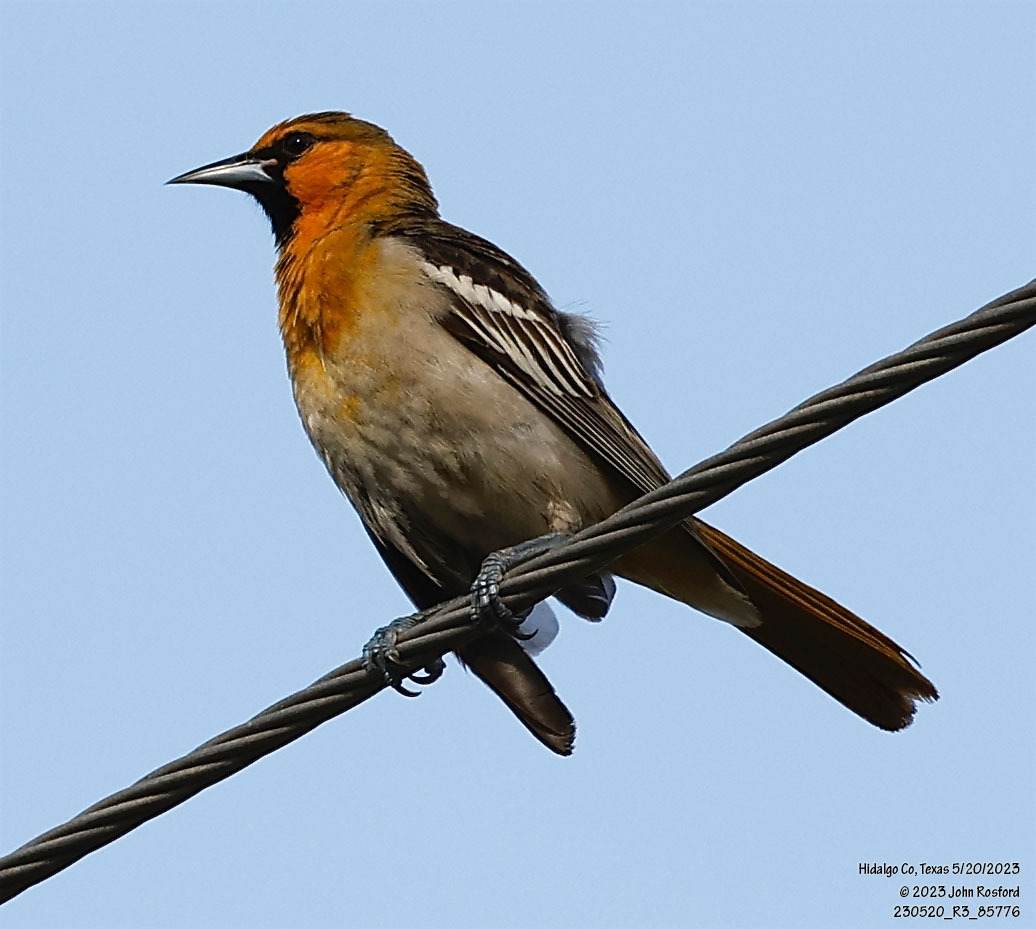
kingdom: Animalia
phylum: Chordata
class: Aves
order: Passeriformes
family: Icteridae
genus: Icterus
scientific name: Icterus bullockii
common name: Bullock's oriole
